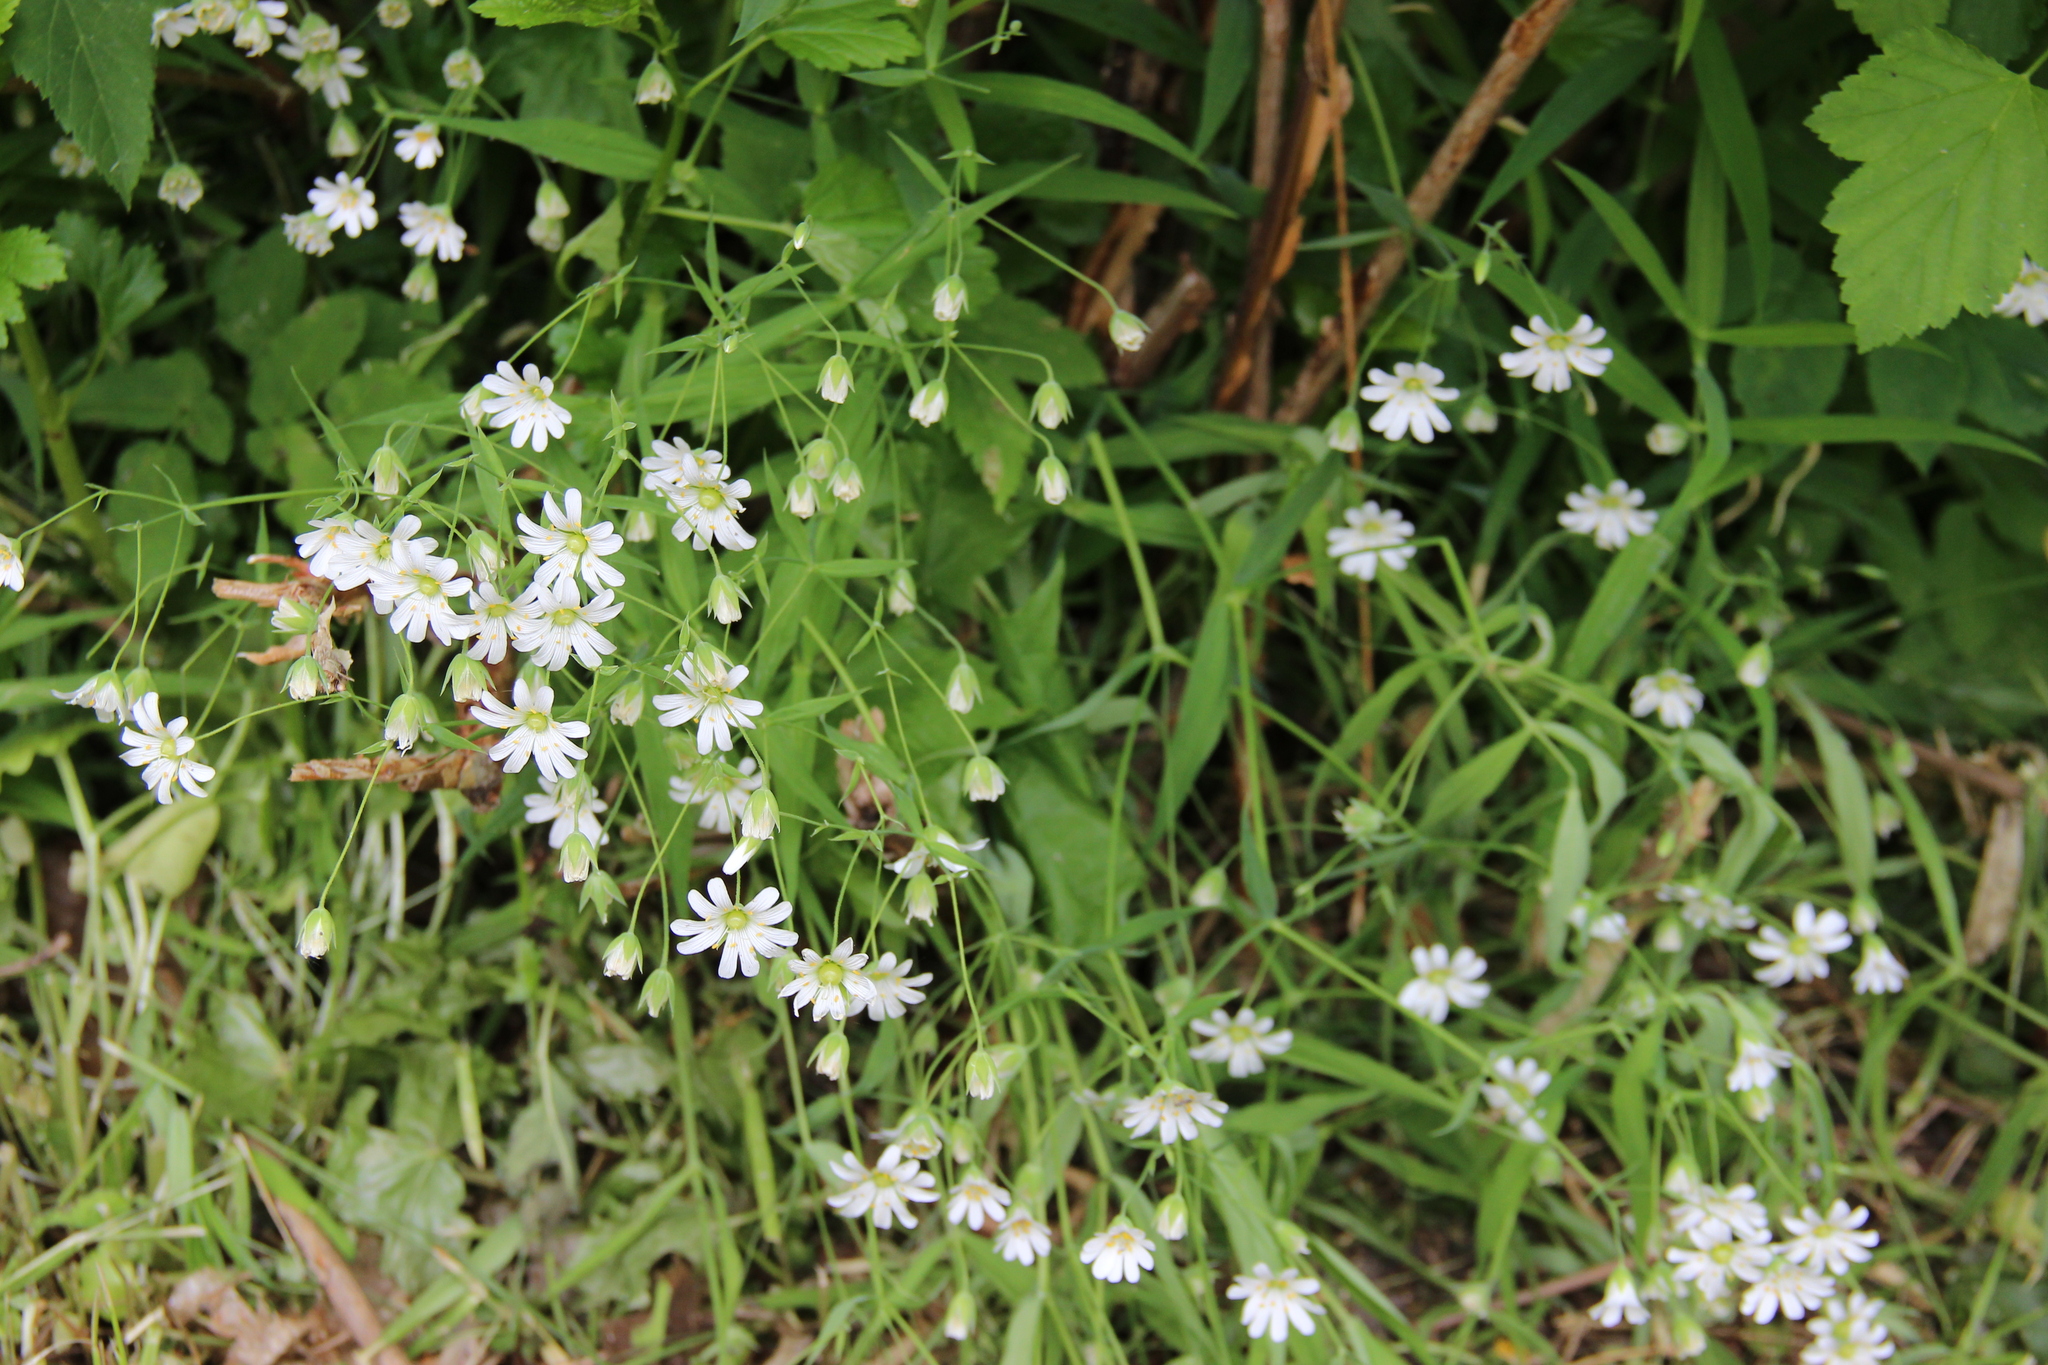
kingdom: Plantae
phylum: Tracheophyta
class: Magnoliopsida
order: Caryophyllales
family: Caryophyllaceae
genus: Rabelera
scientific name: Rabelera holostea
